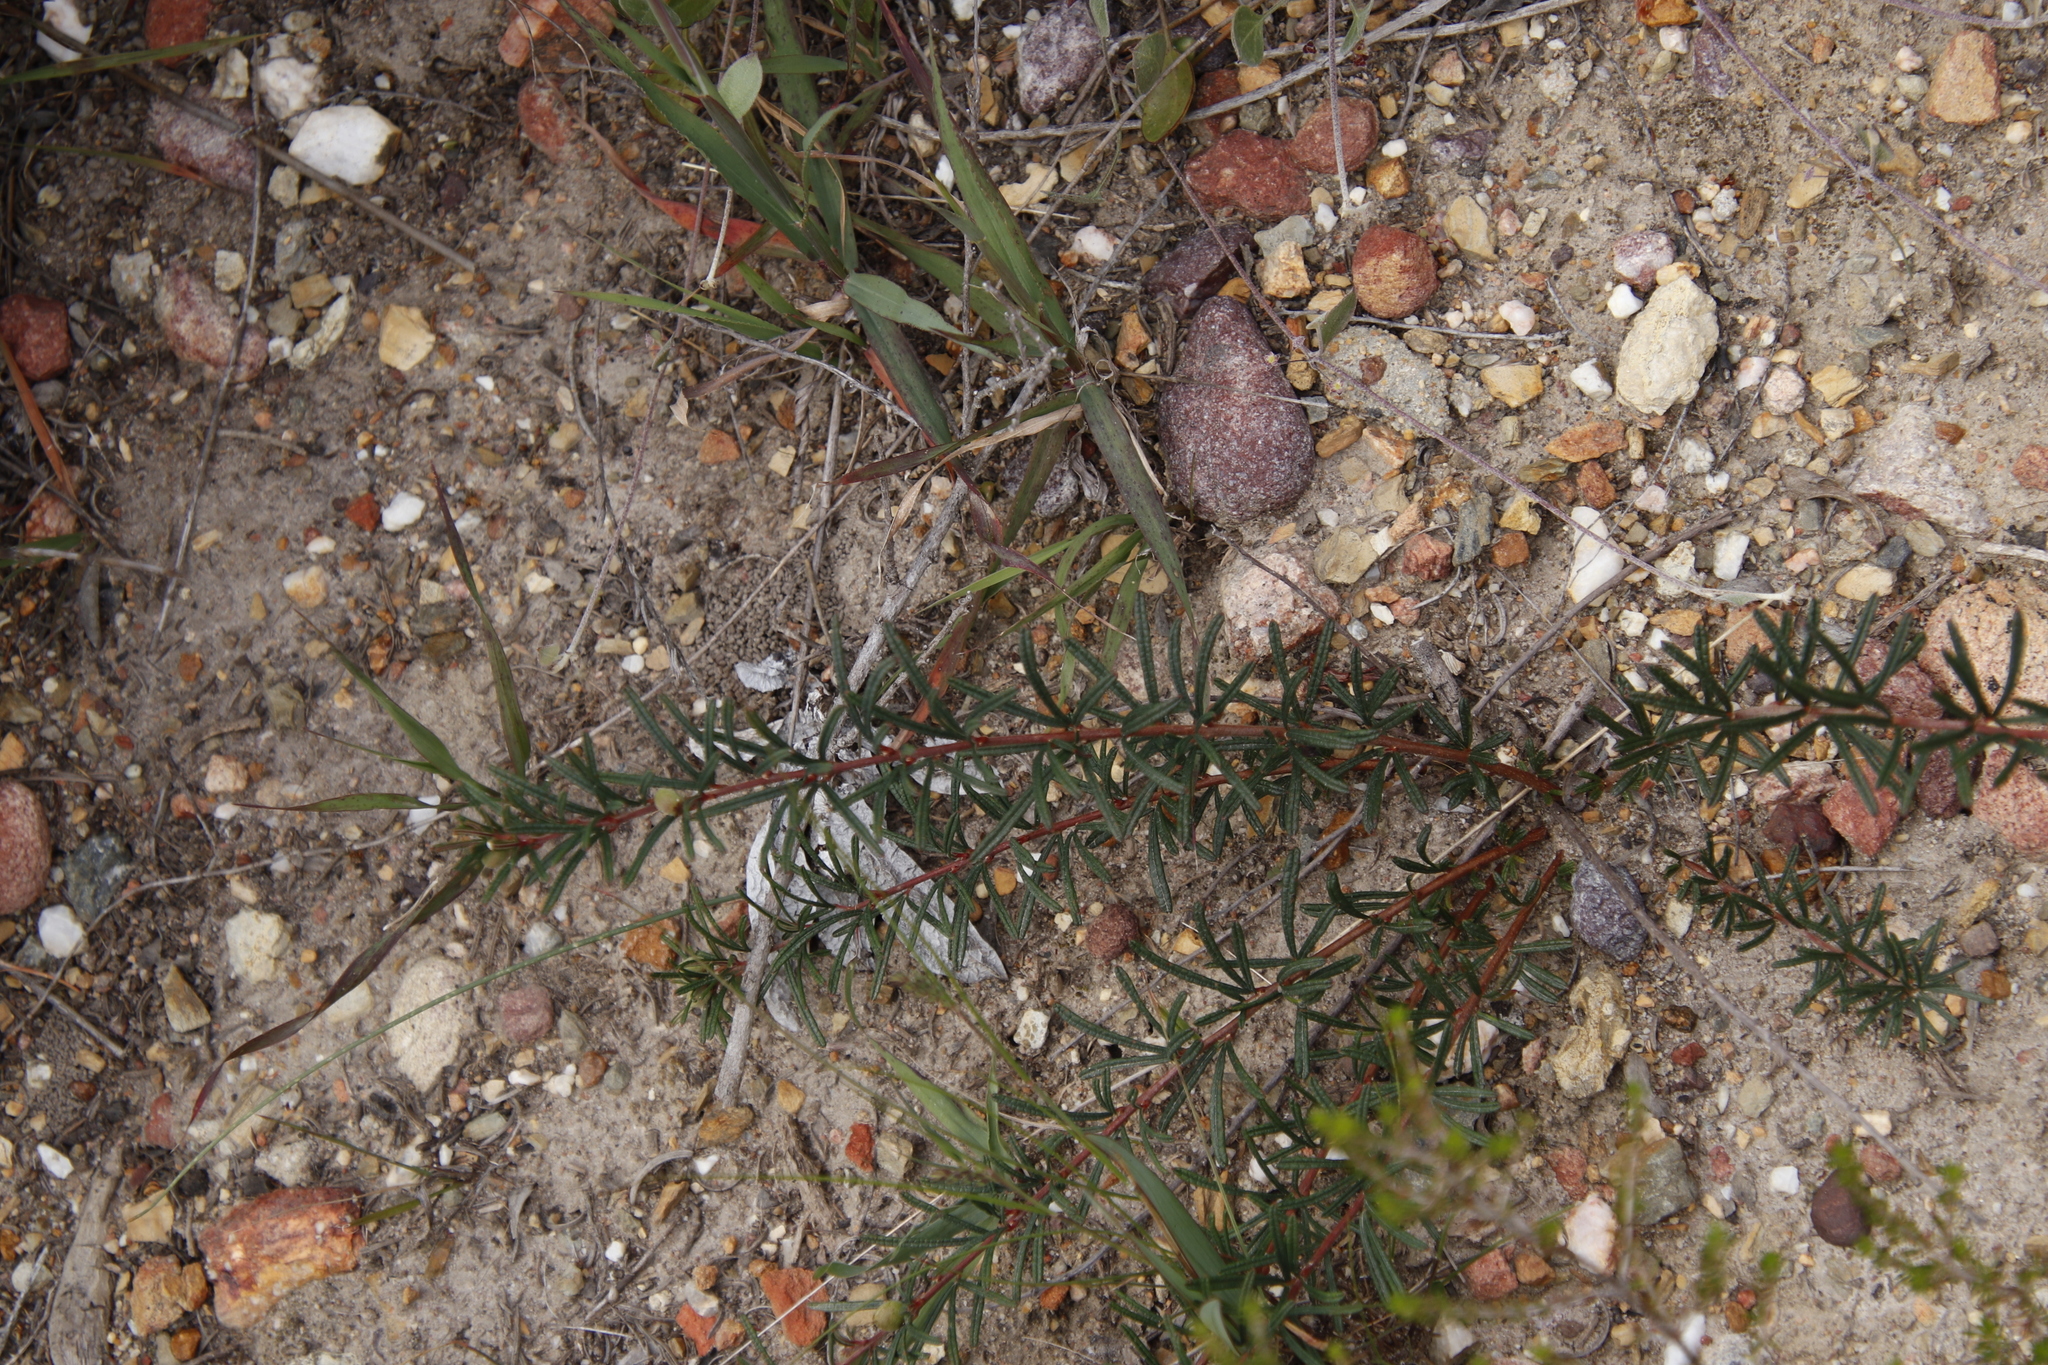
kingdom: Plantae
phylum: Tracheophyta
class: Magnoliopsida
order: Sapindales
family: Anacardiaceae
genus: Searsia
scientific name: Searsia rosmarinifolia
